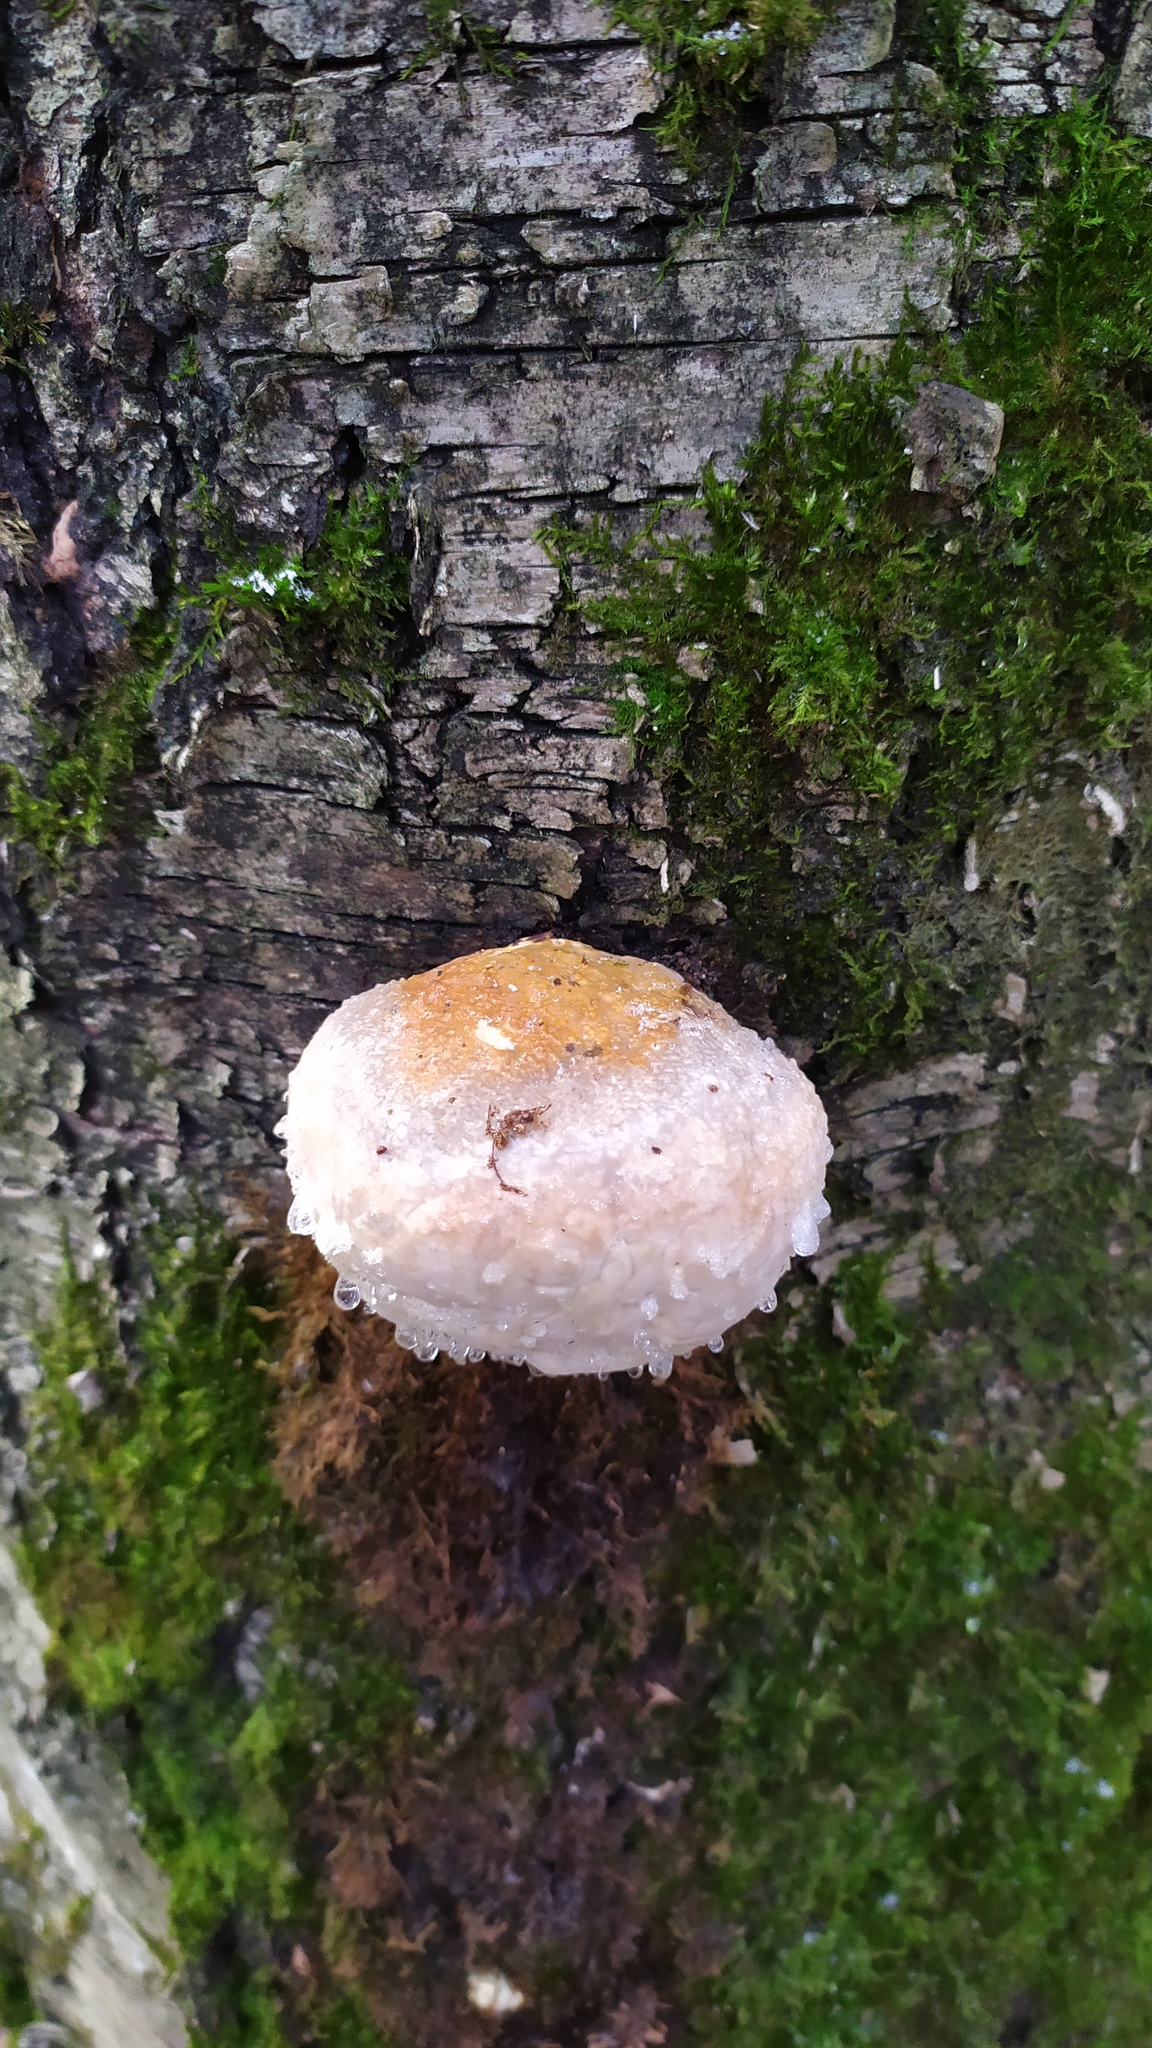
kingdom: Fungi
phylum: Basidiomycota
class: Agaricomycetes
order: Polyporales
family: Fomitopsidaceae
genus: Fomitopsis
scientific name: Fomitopsis pinicola
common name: Red-belted bracket
